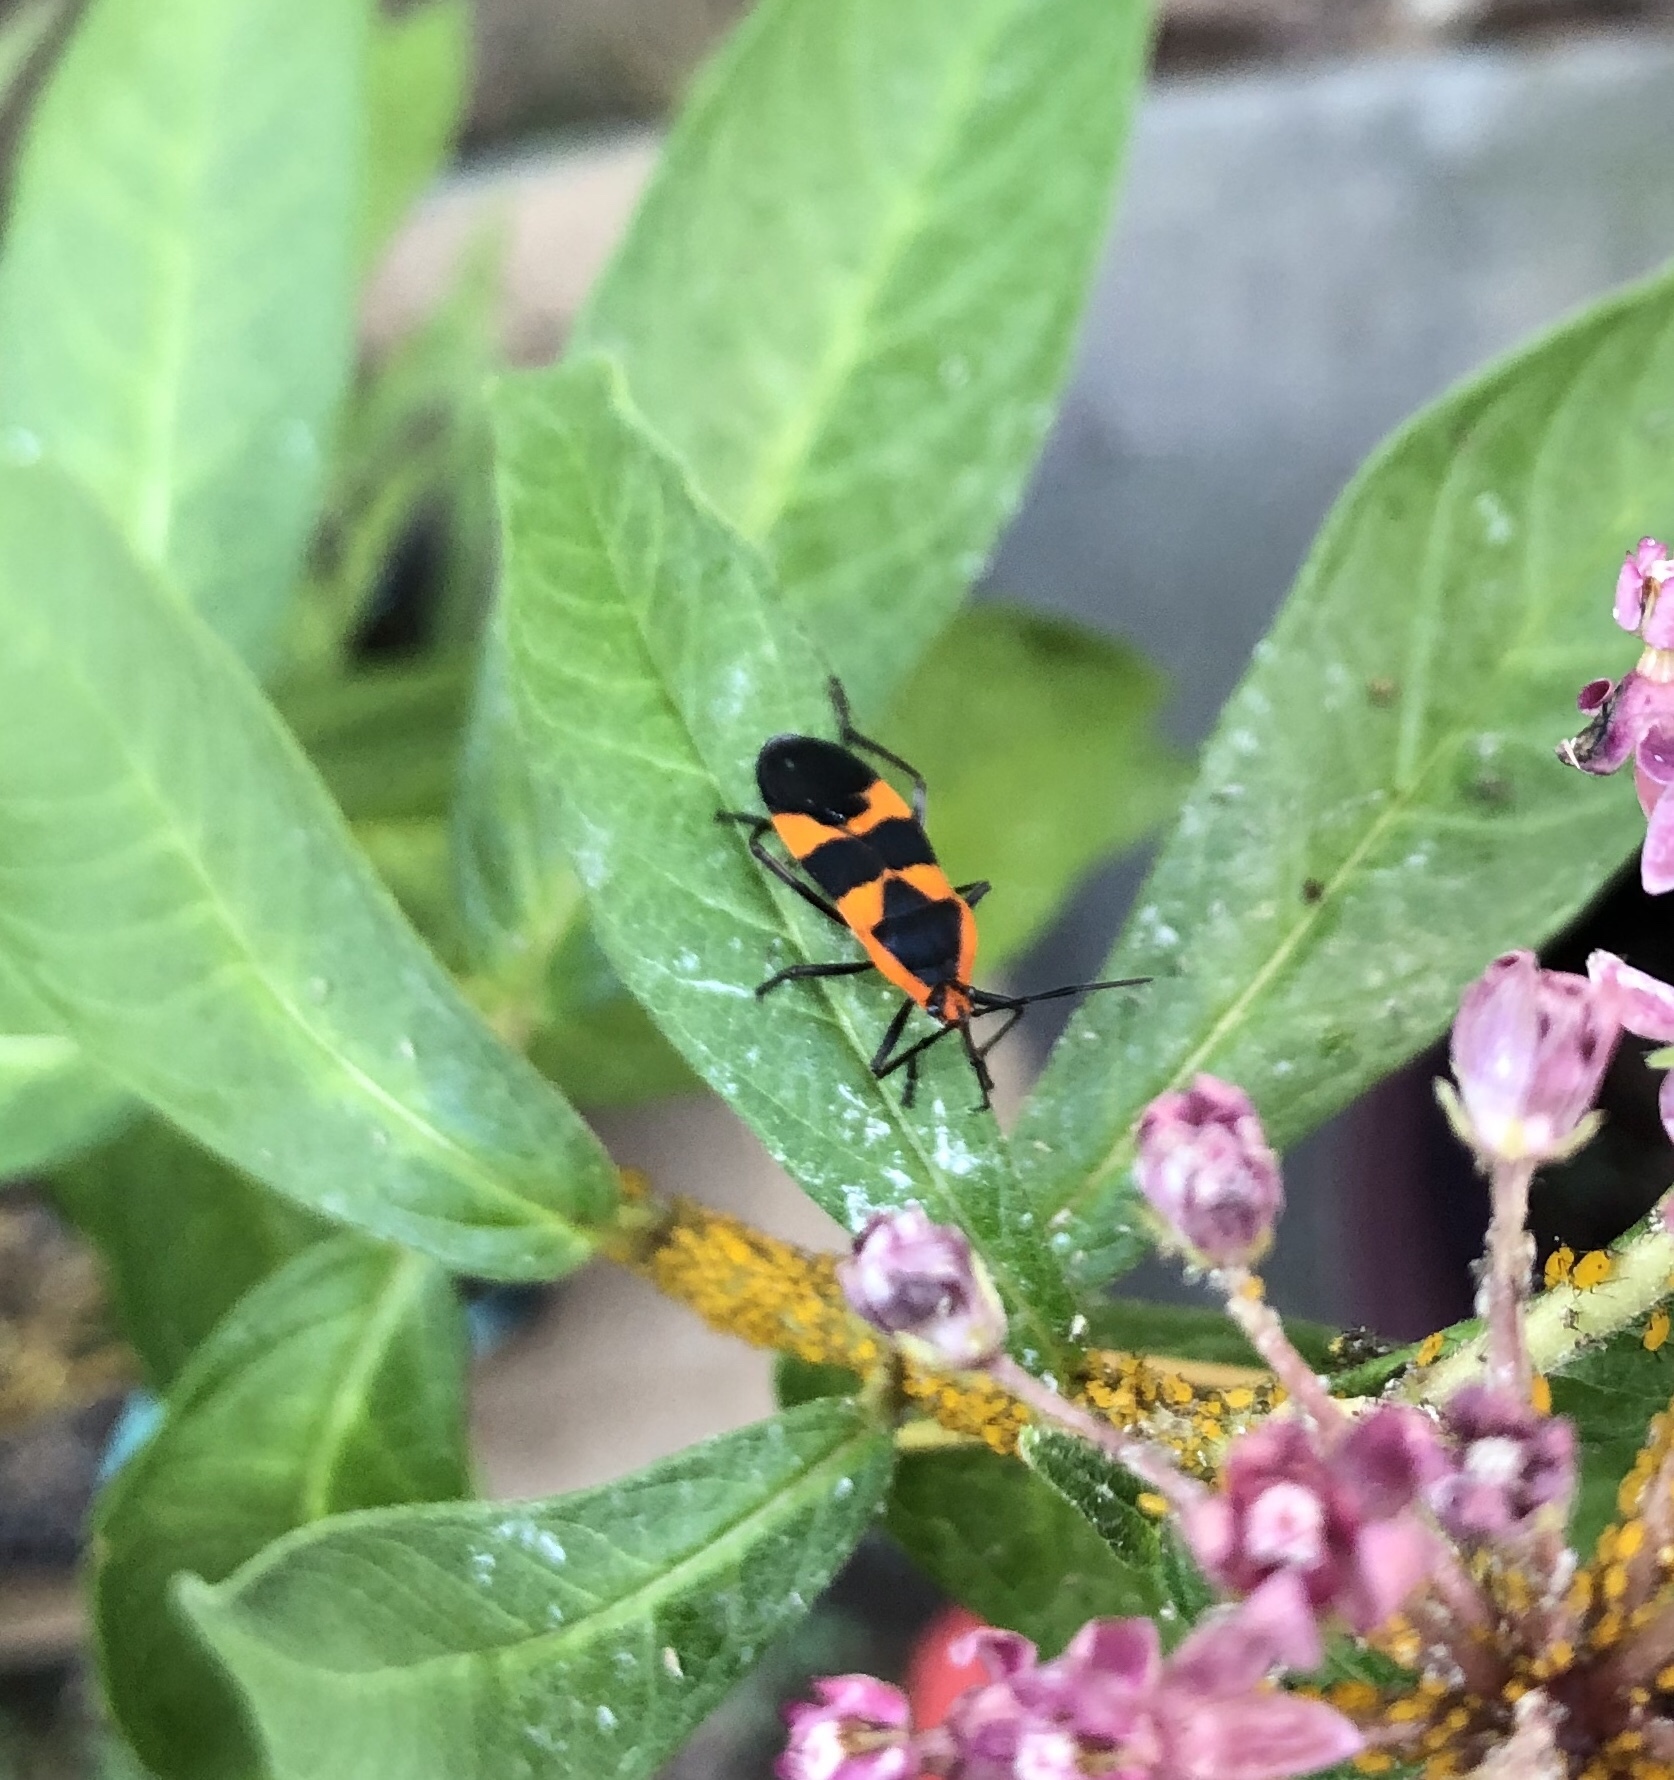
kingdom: Animalia
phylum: Arthropoda
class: Insecta
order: Hemiptera
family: Lygaeidae
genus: Oncopeltus
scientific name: Oncopeltus fasciatus
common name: Large milkweed bug
